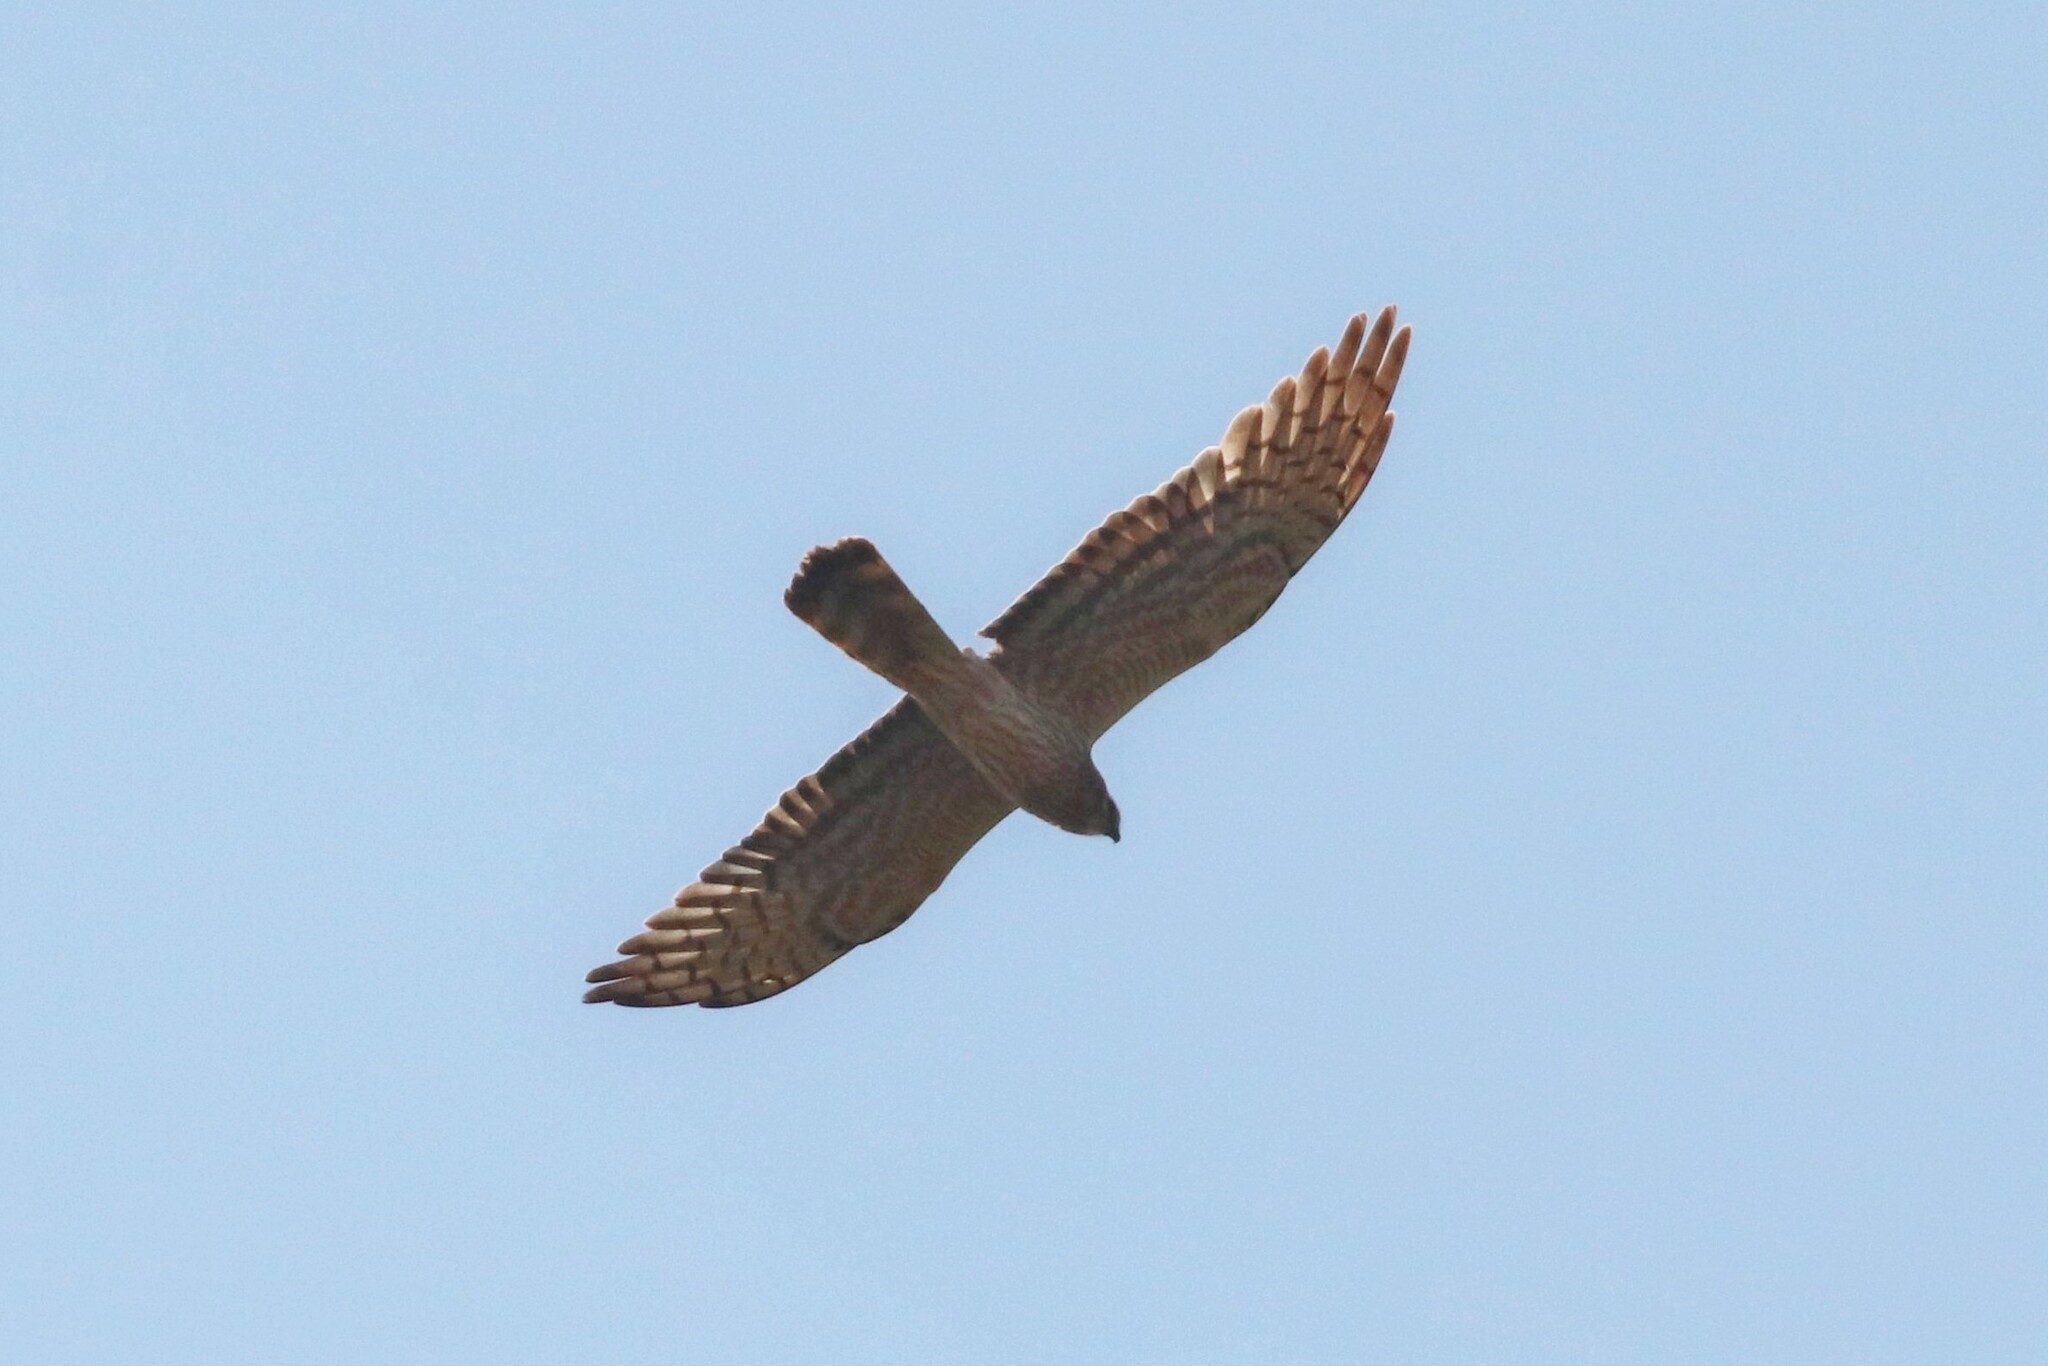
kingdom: Animalia
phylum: Chordata
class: Aves
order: Accipitriformes
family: Accipitridae
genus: Circus
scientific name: Circus pygargus
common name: Montagu's harrier
